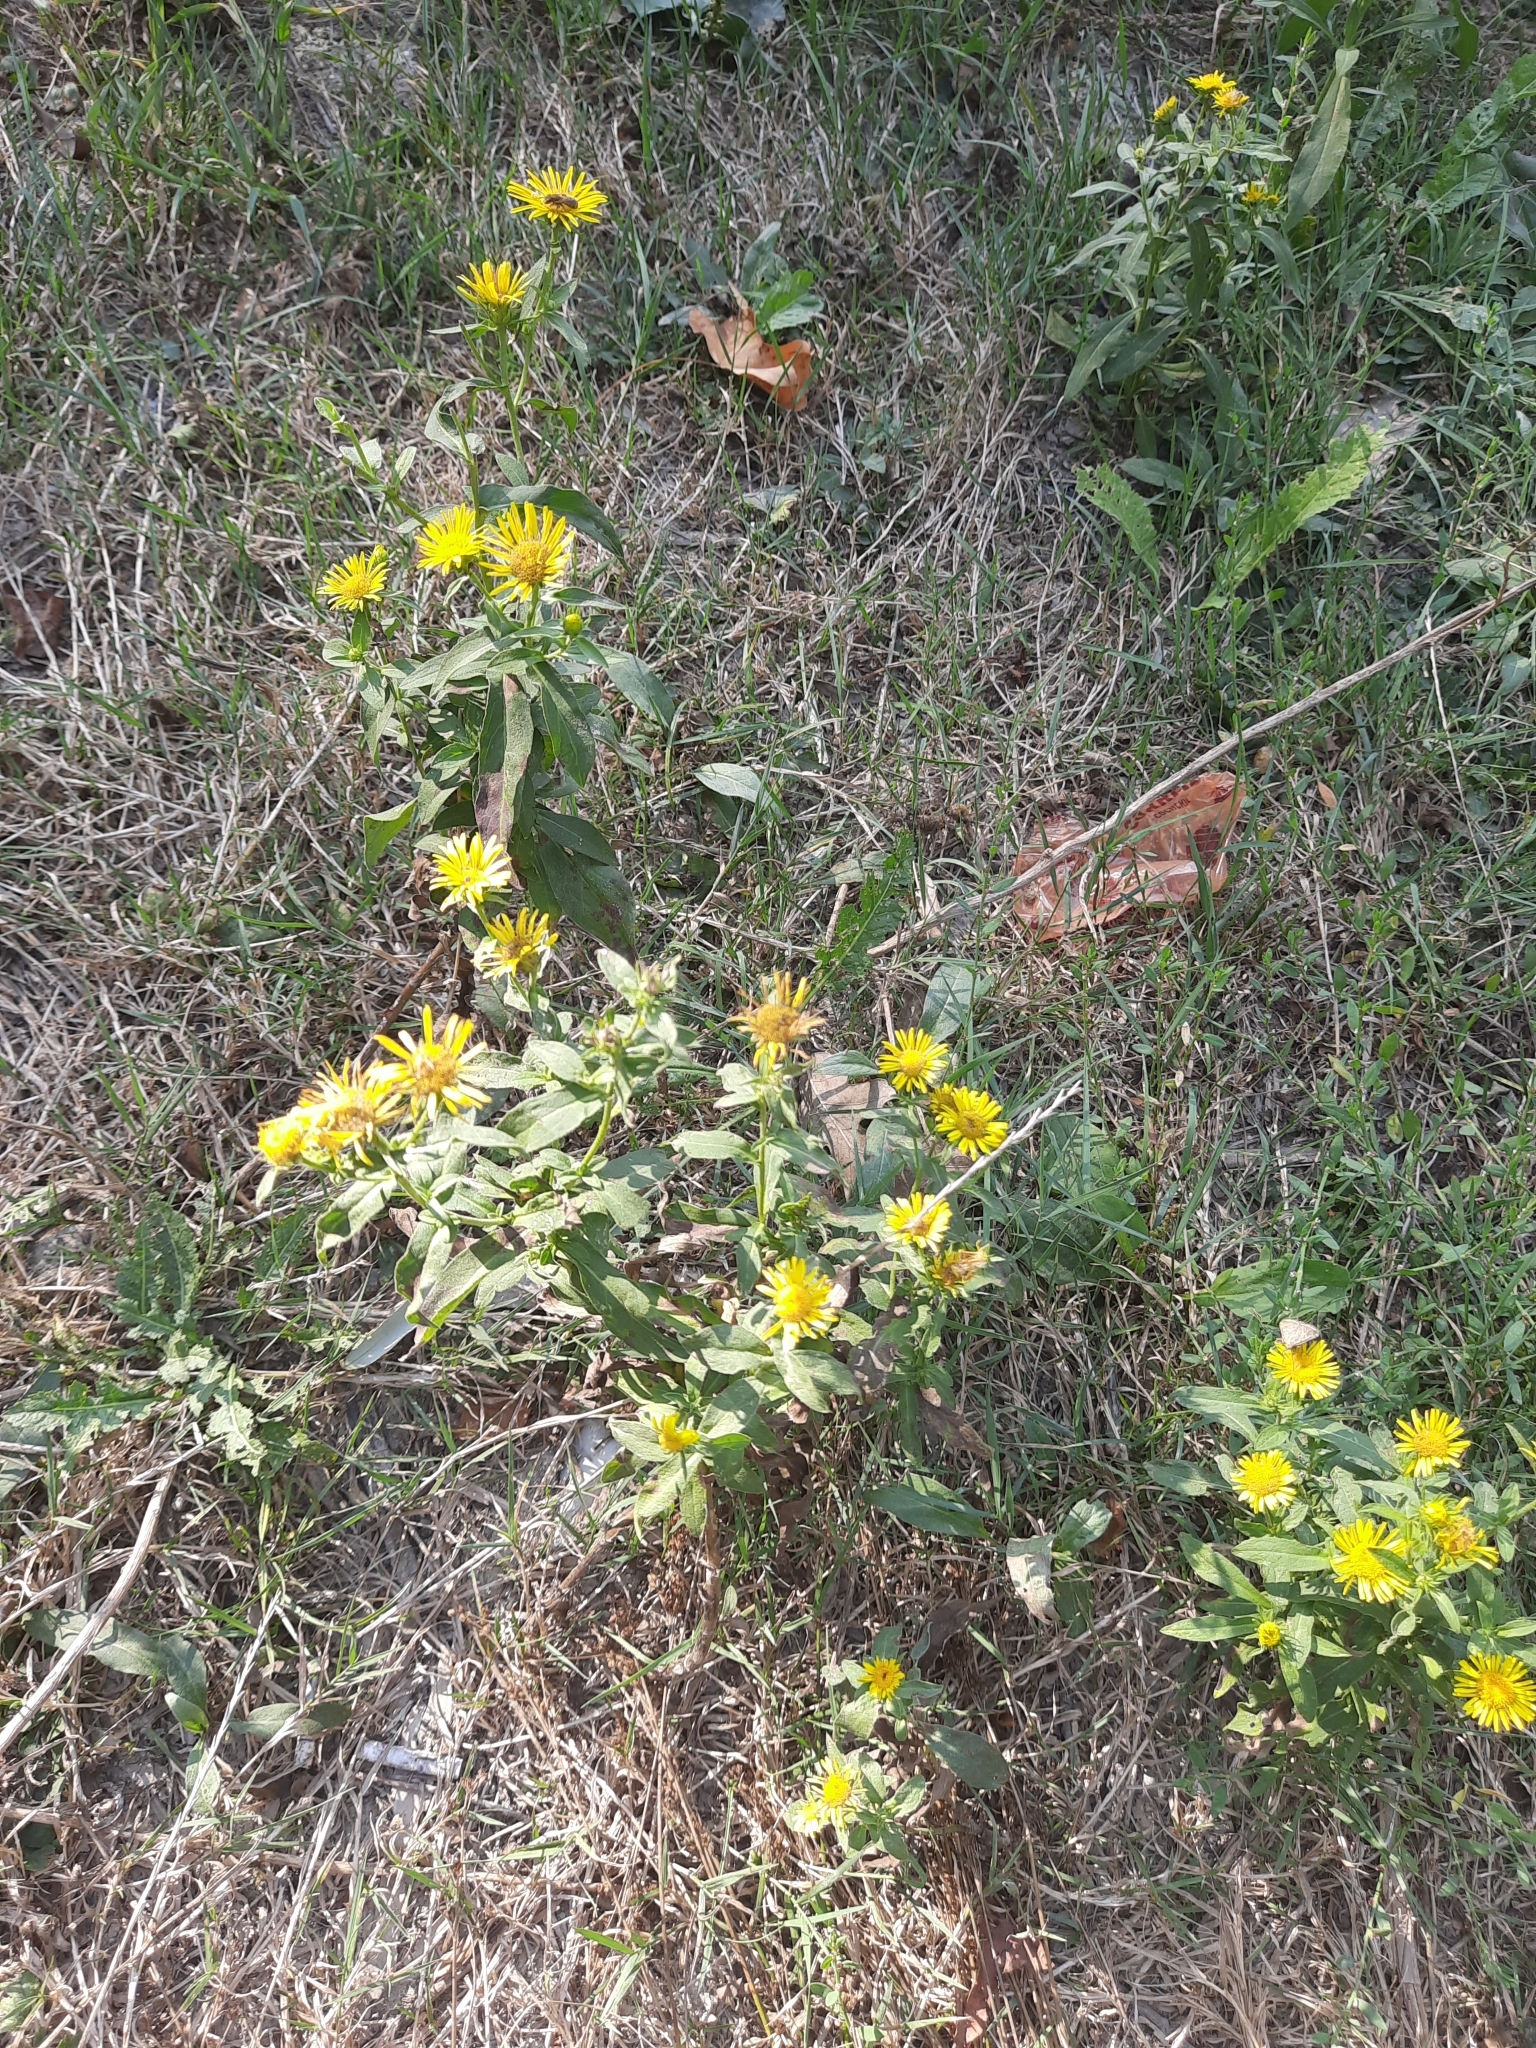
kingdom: Plantae
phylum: Tracheophyta
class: Magnoliopsida
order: Asterales
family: Asteraceae
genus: Pentanema
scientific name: Pentanema britannicum
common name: British elecampane
